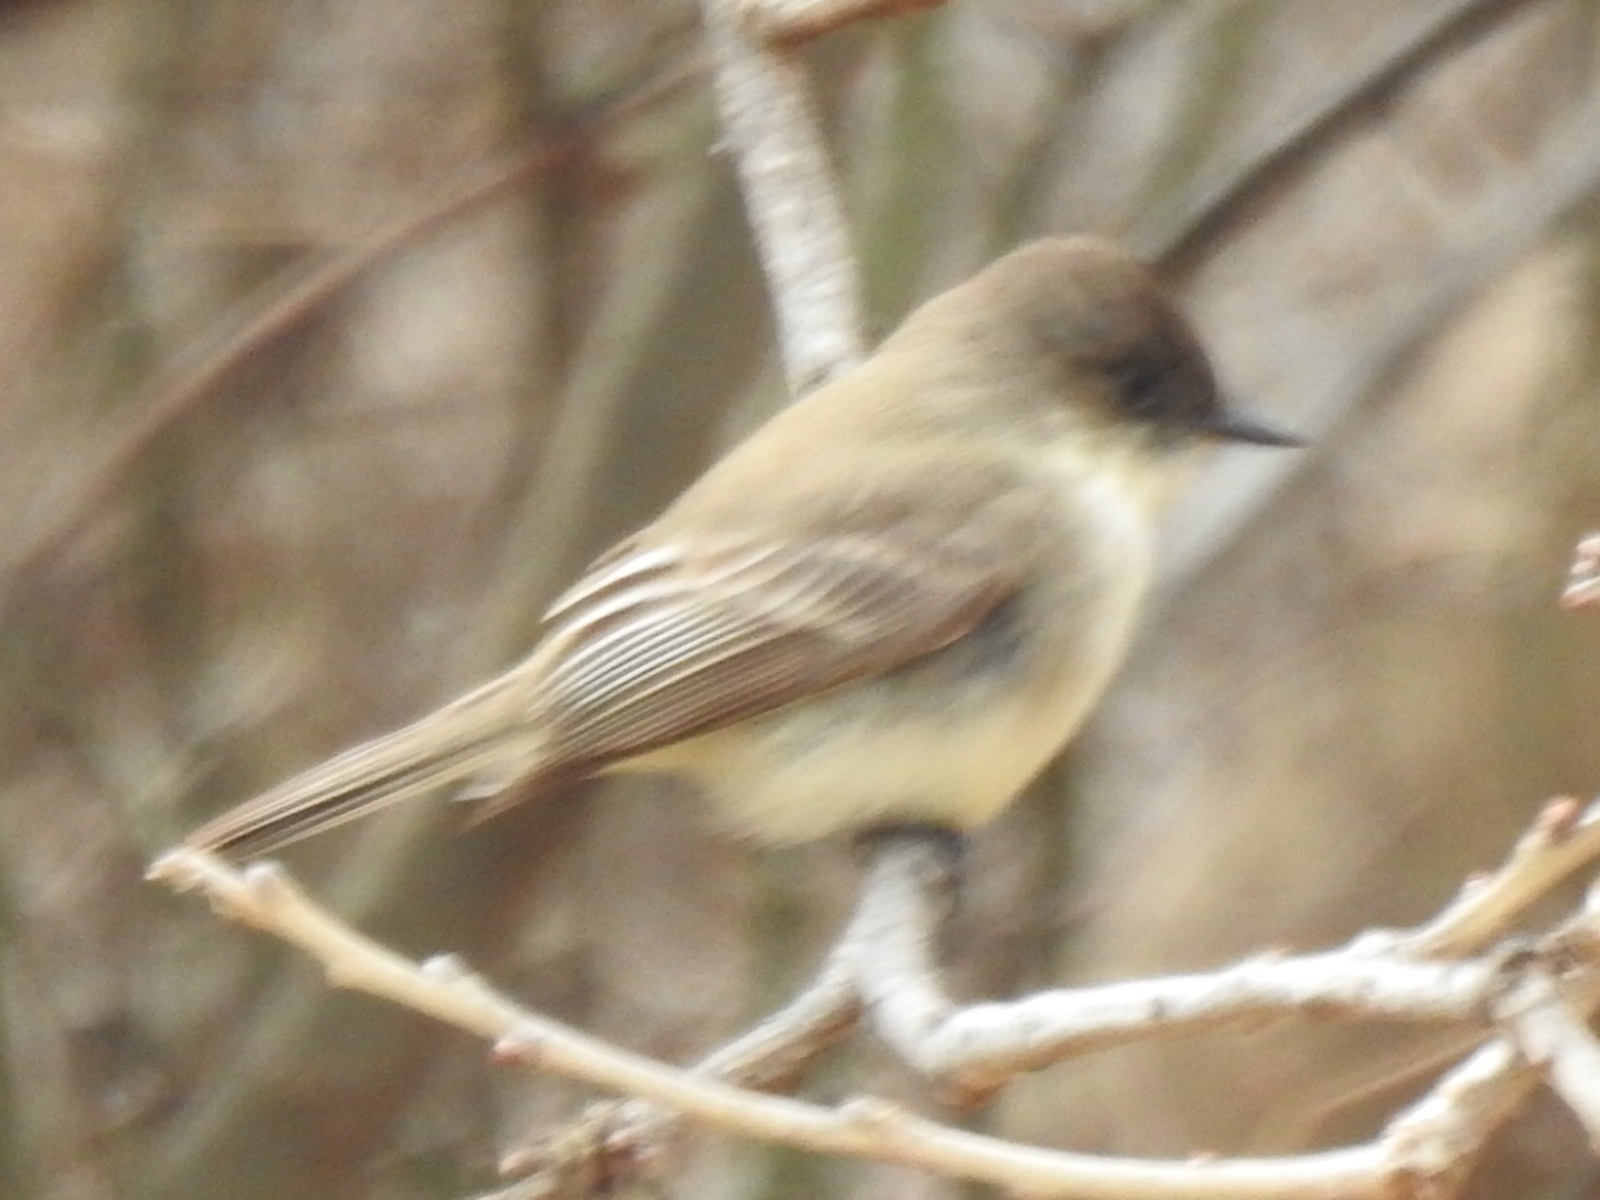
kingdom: Animalia
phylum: Chordata
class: Aves
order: Passeriformes
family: Tyrannidae
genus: Sayornis
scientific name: Sayornis phoebe
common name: Eastern phoebe
